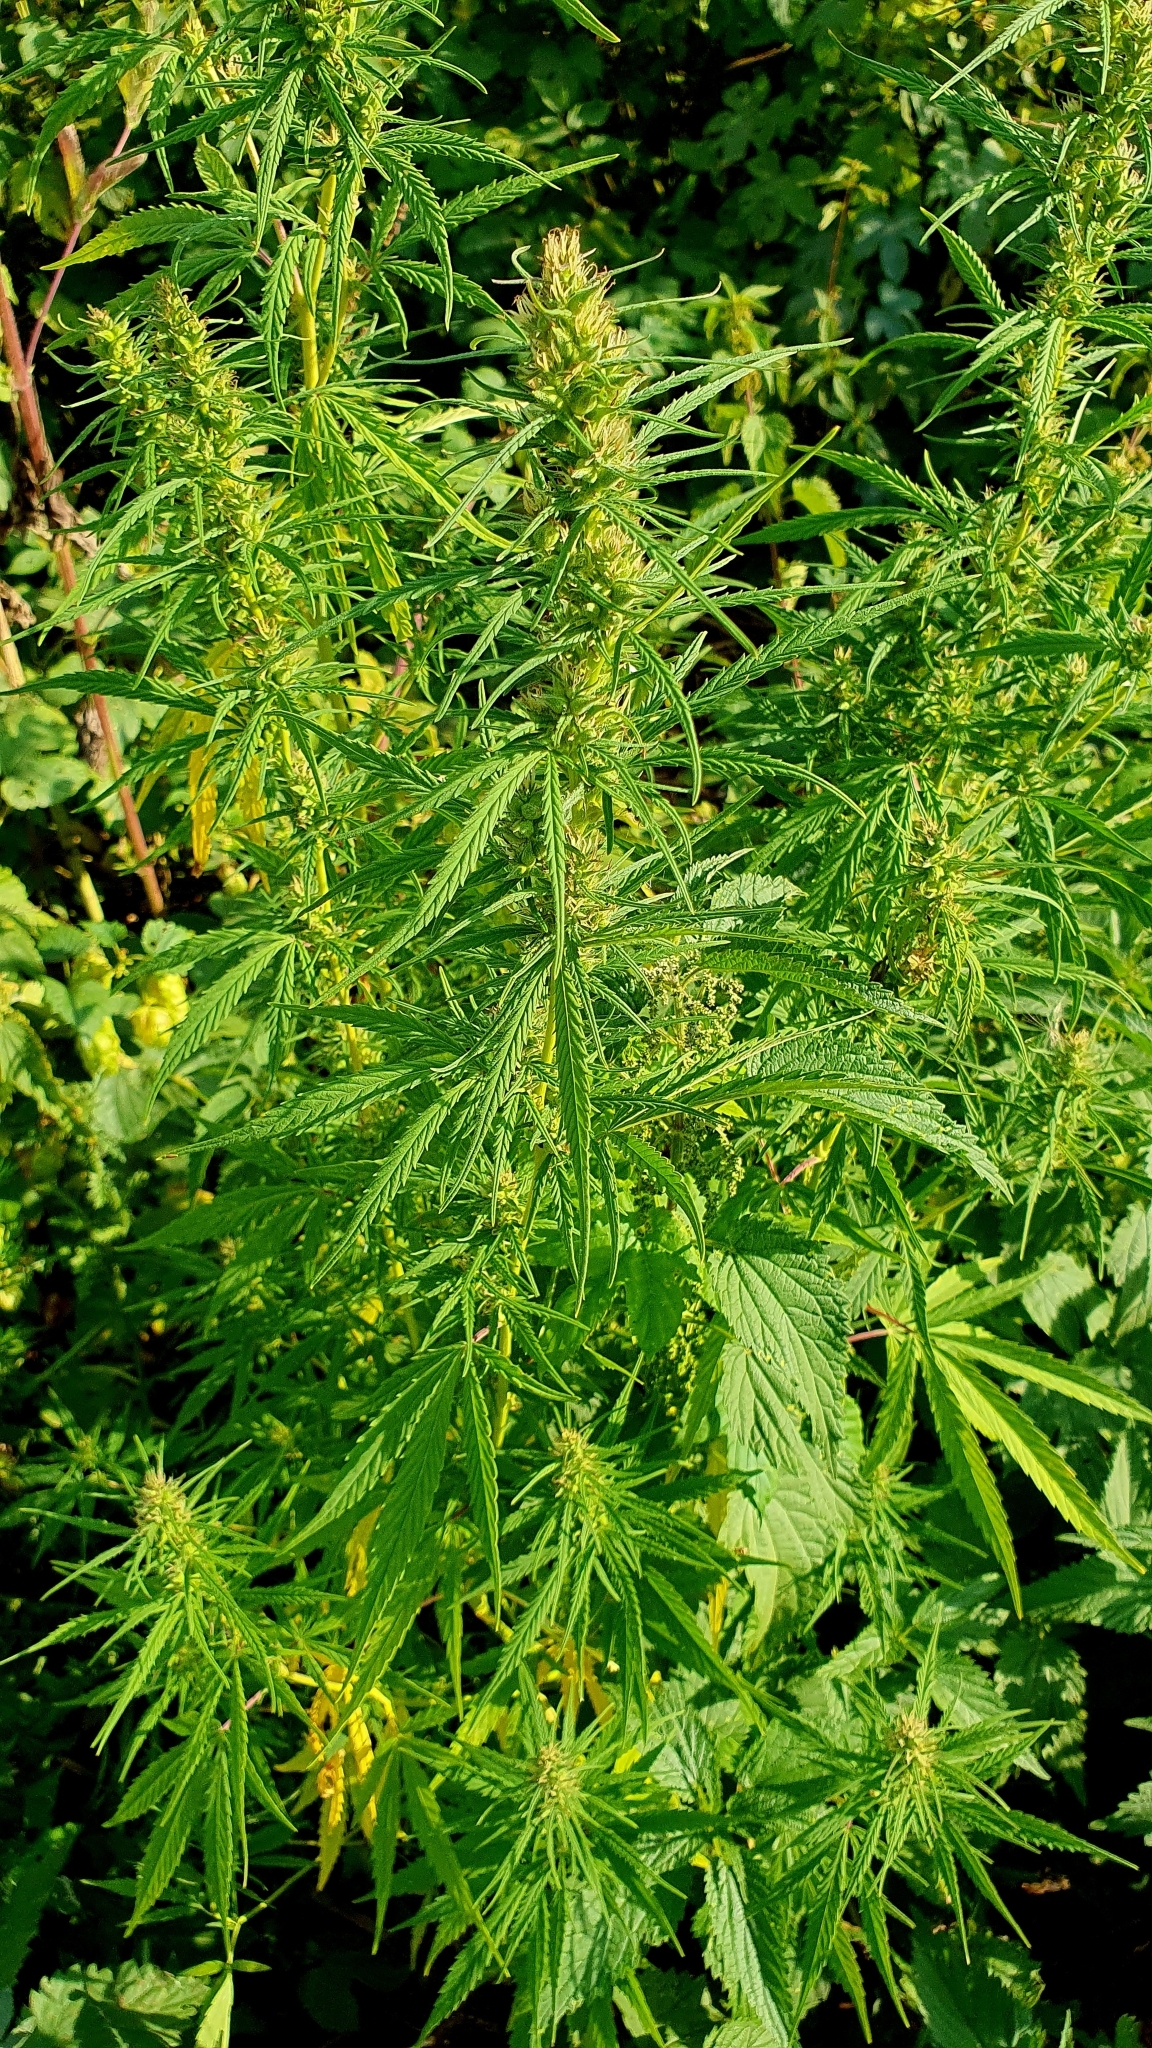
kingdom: Plantae
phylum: Tracheophyta
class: Magnoliopsida
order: Rosales
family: Cannabaceae
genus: Cannabis
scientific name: Cannabis sativa
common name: Hemp
